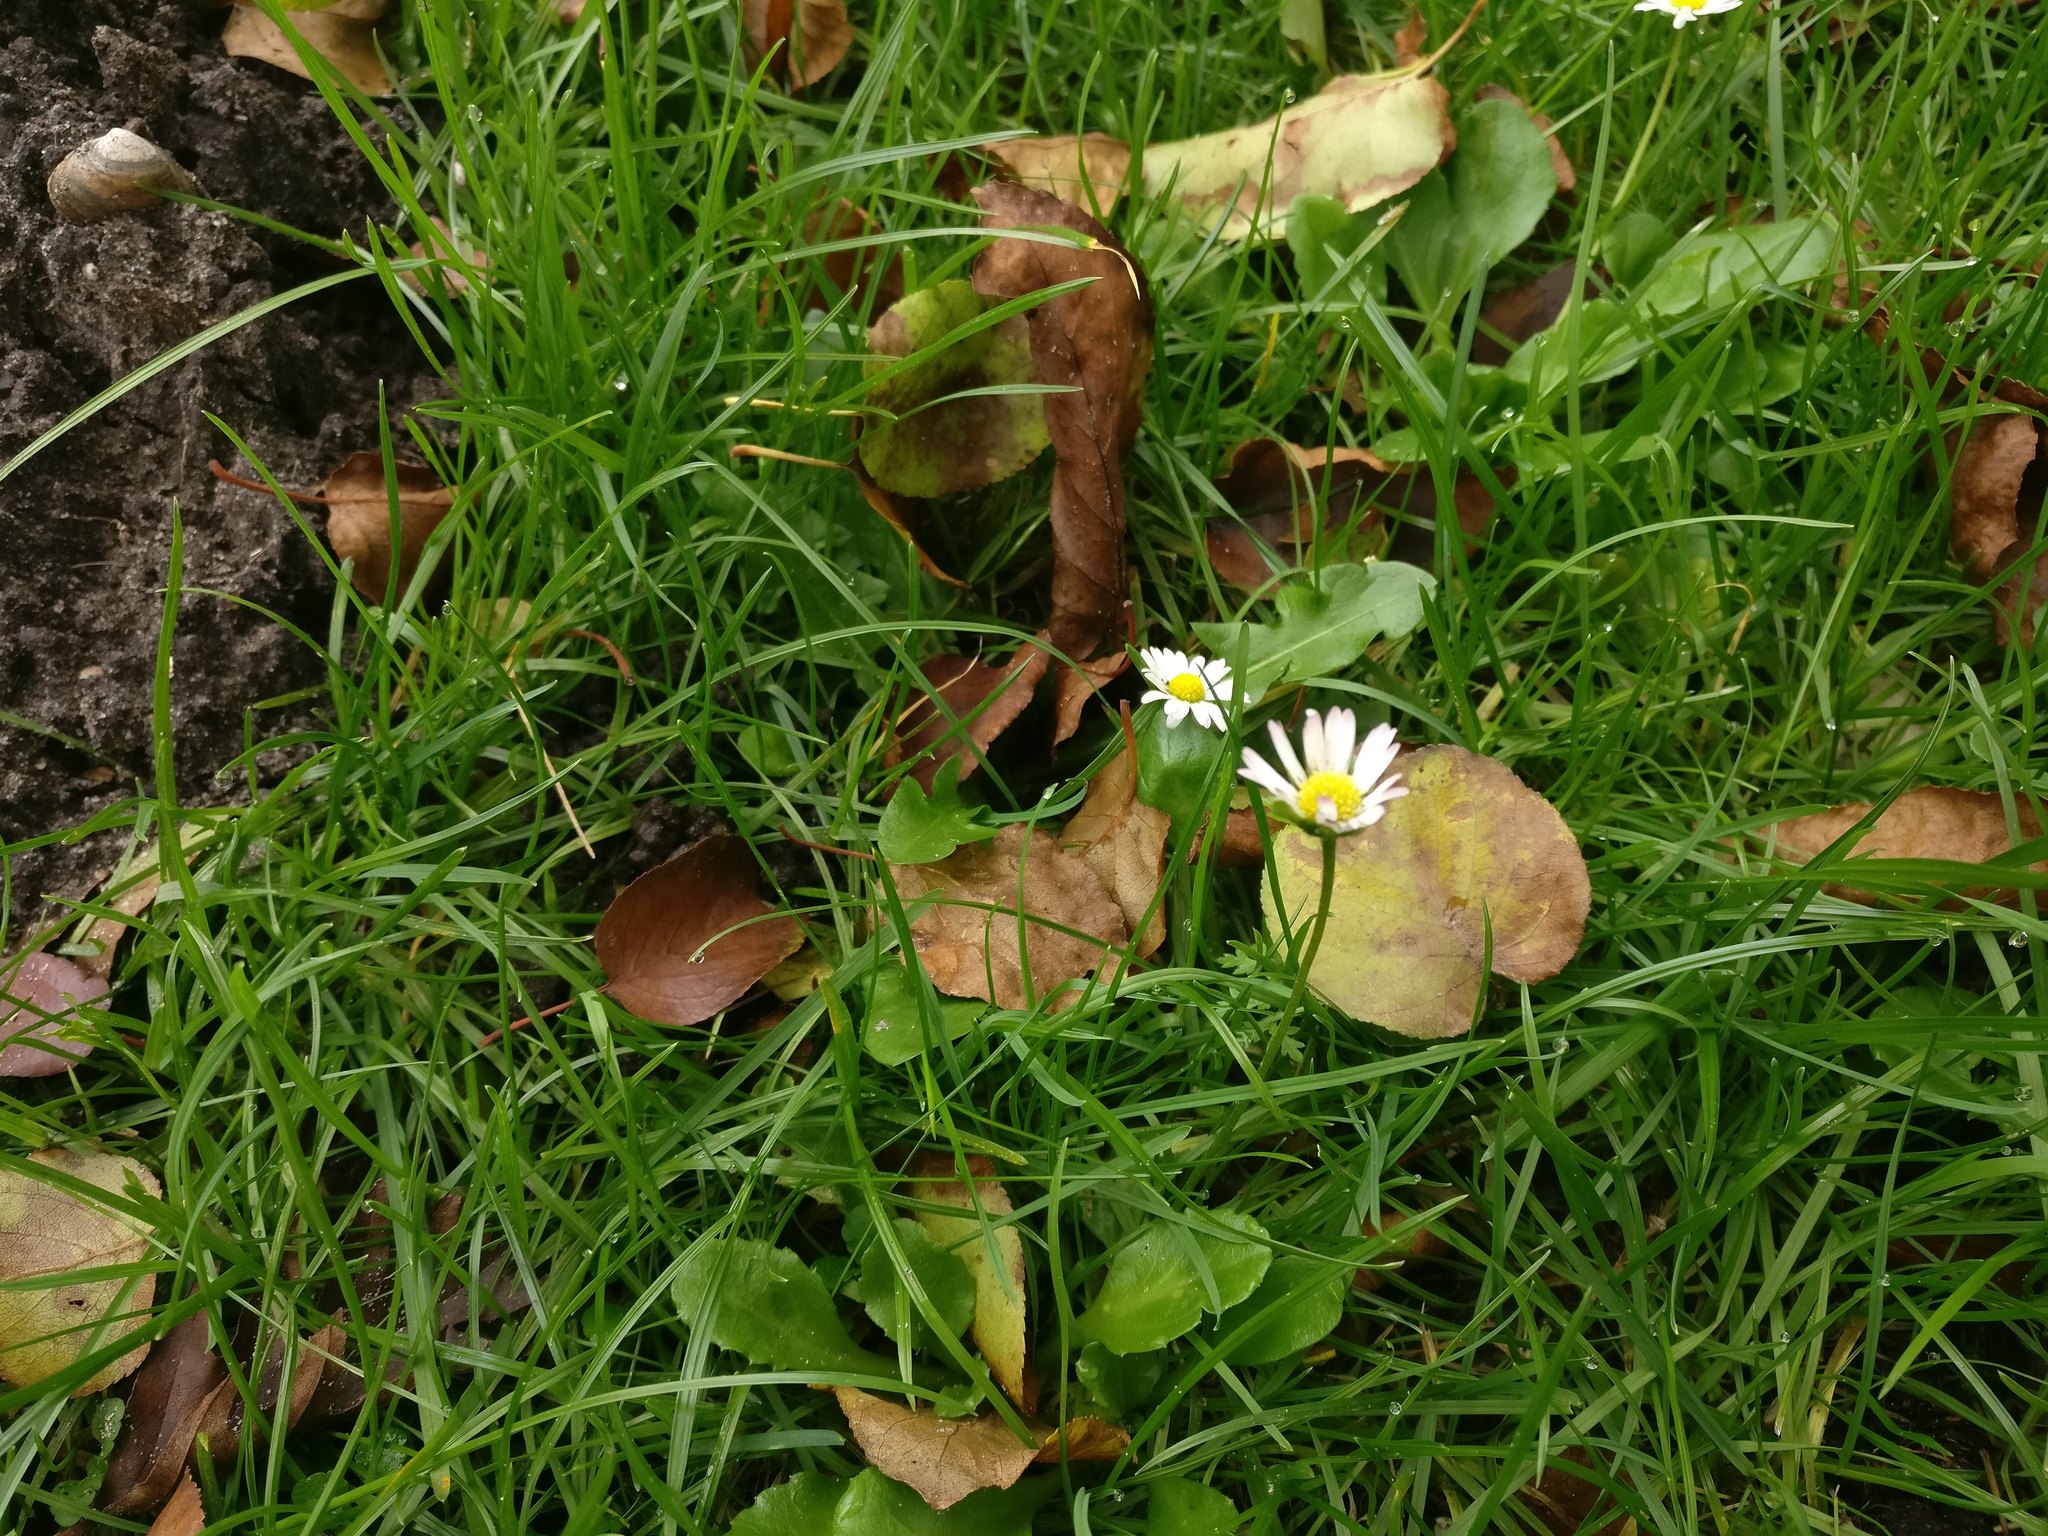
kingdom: Plantae
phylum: Tracheophyta
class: Magnoliopsida
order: Asterales
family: Asteraceae
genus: Bellis
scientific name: Bellis perennis
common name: Lawndaisy
